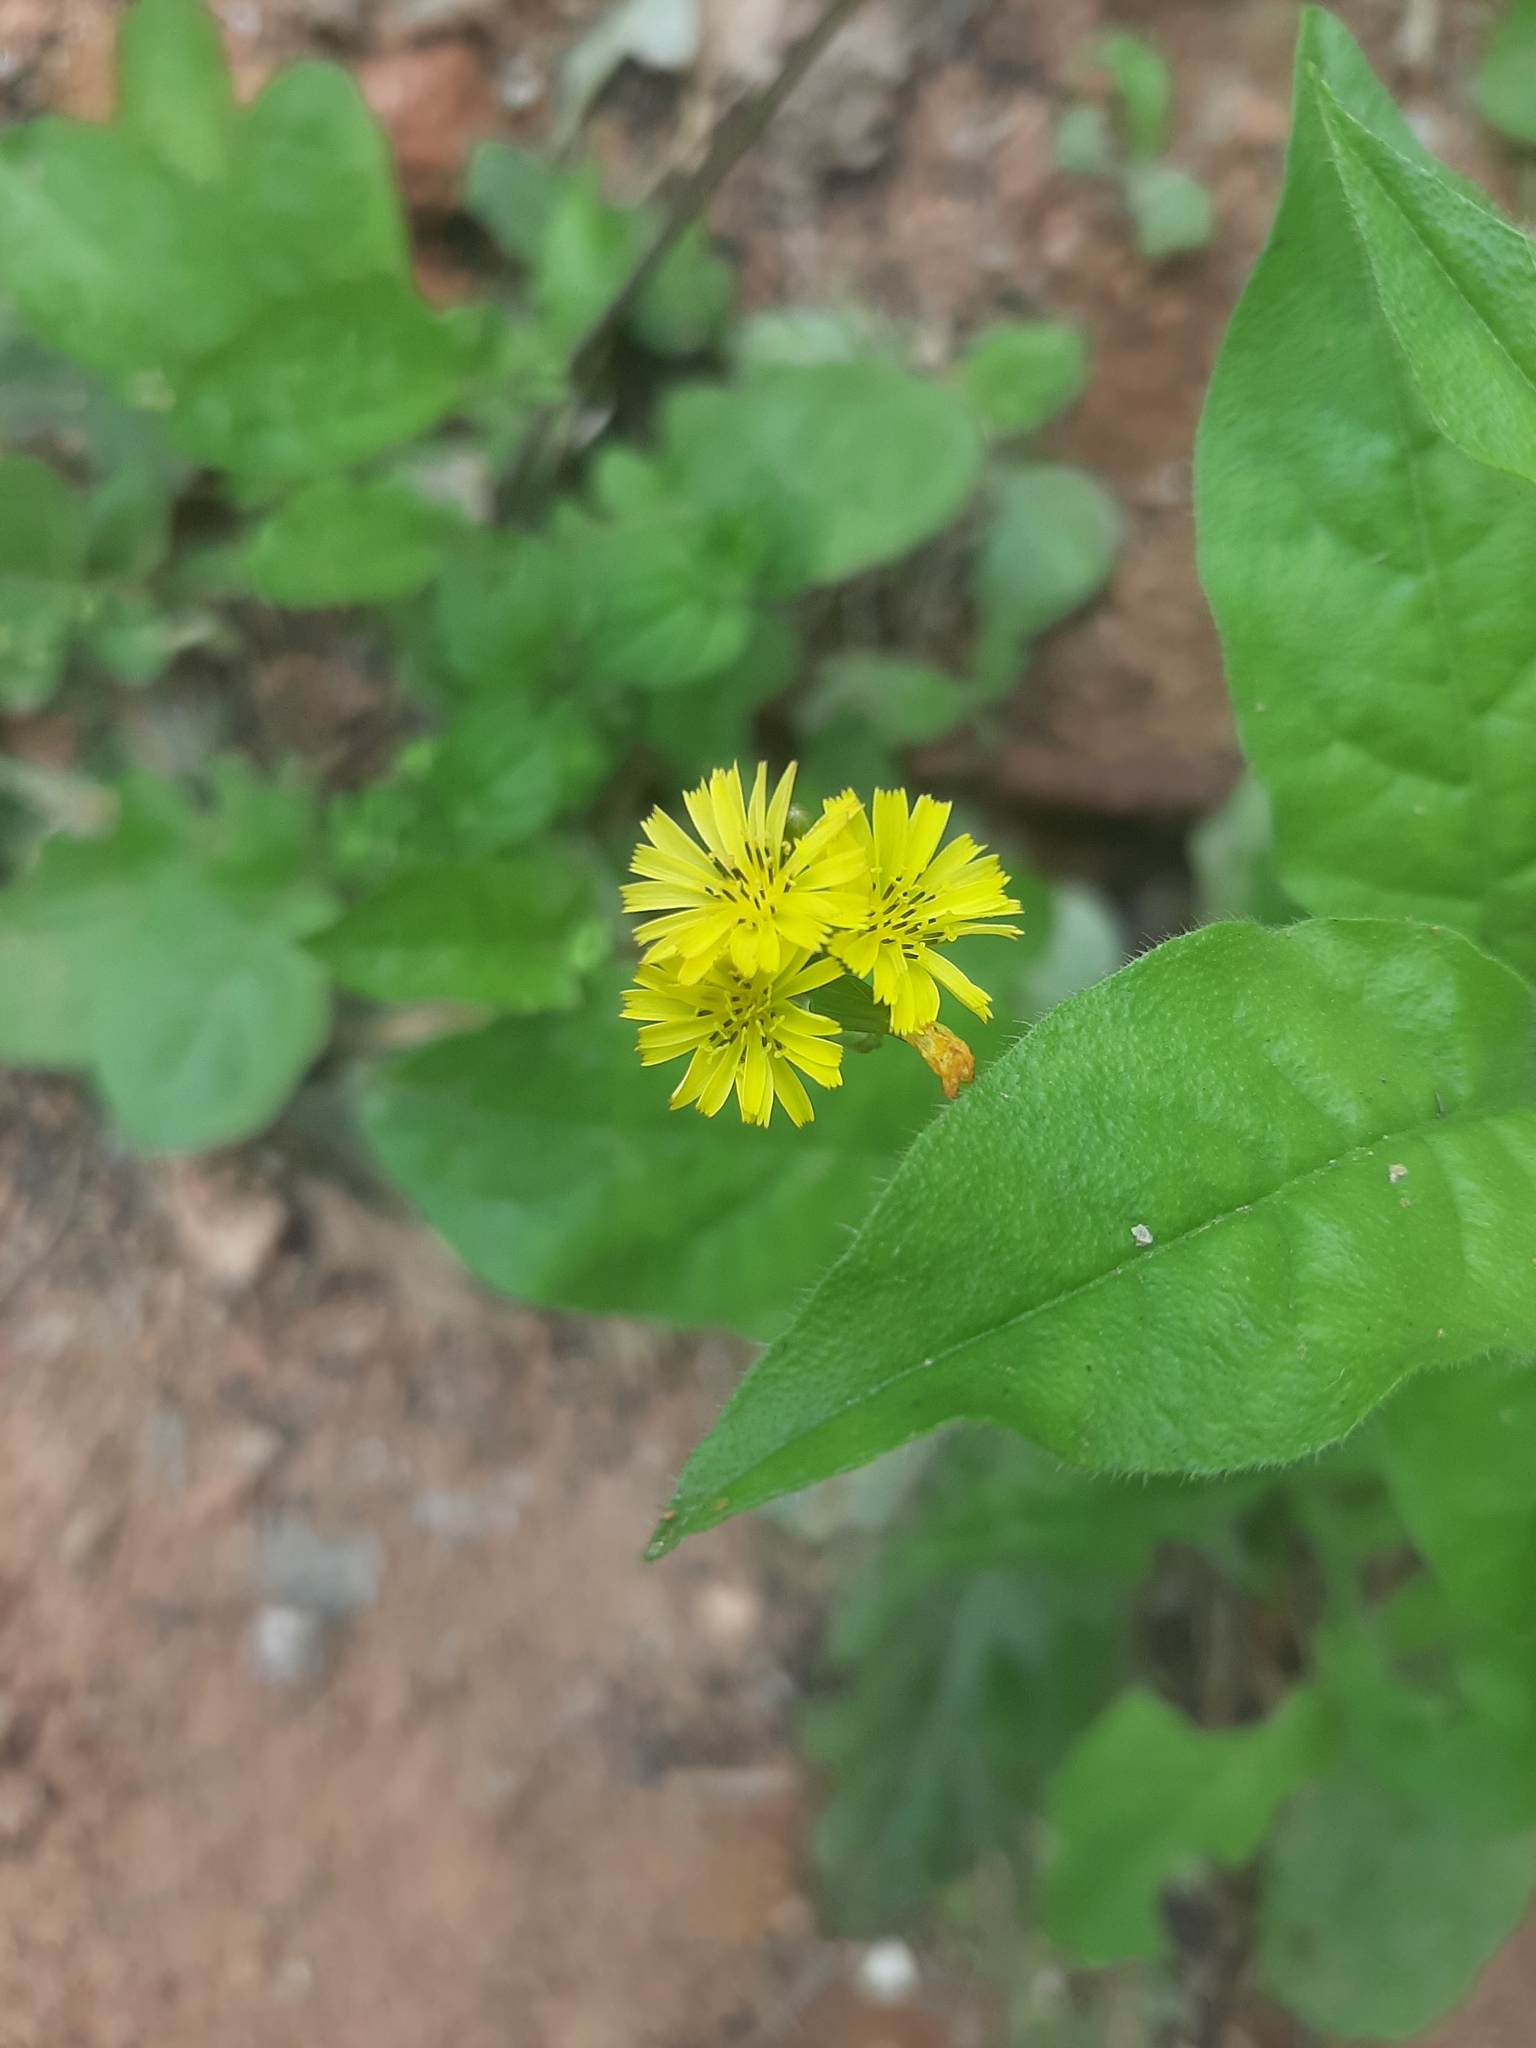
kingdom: Plantae
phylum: Tracheophyta
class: Magnoliopsida
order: Asterales
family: Asteraceae
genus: Youngia
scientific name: Youngia japonica
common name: Oriental false hawksbeard
